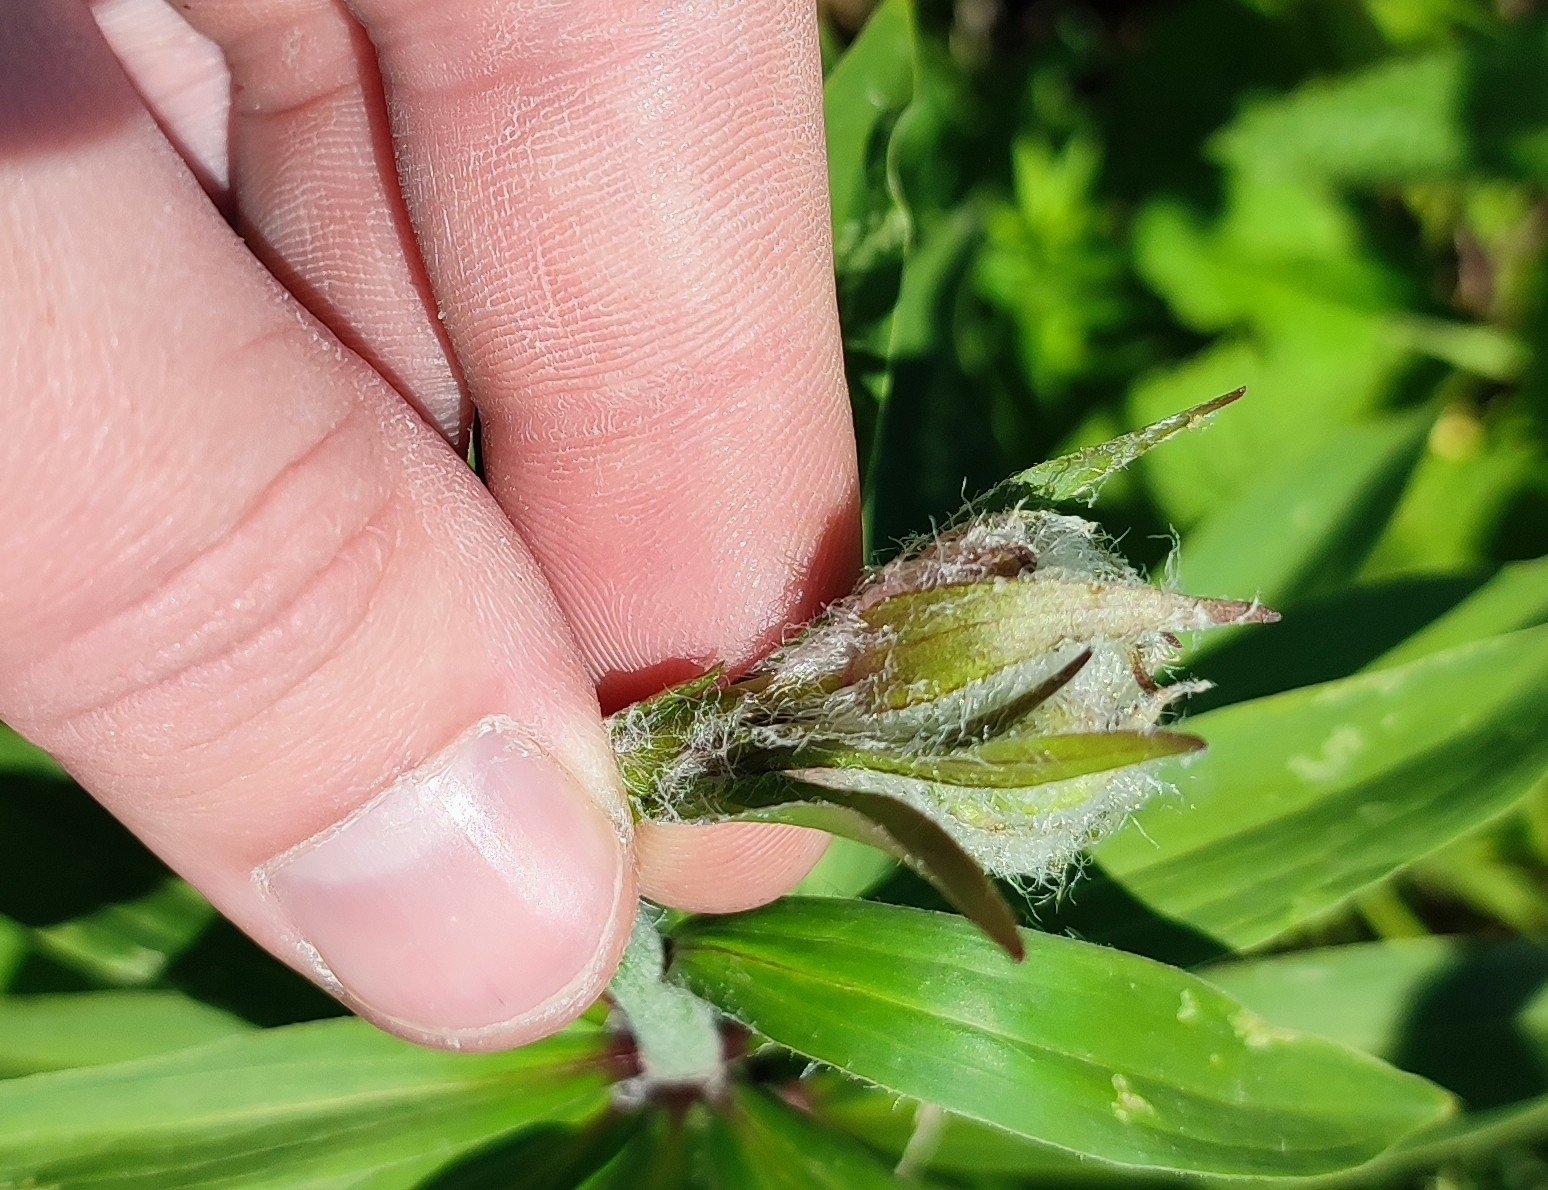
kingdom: Plantae
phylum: Tracheophyta
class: Liliopsida
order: Liliales
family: Liliaceae
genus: Lilium
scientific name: Lilium martagon
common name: Martagon lily
